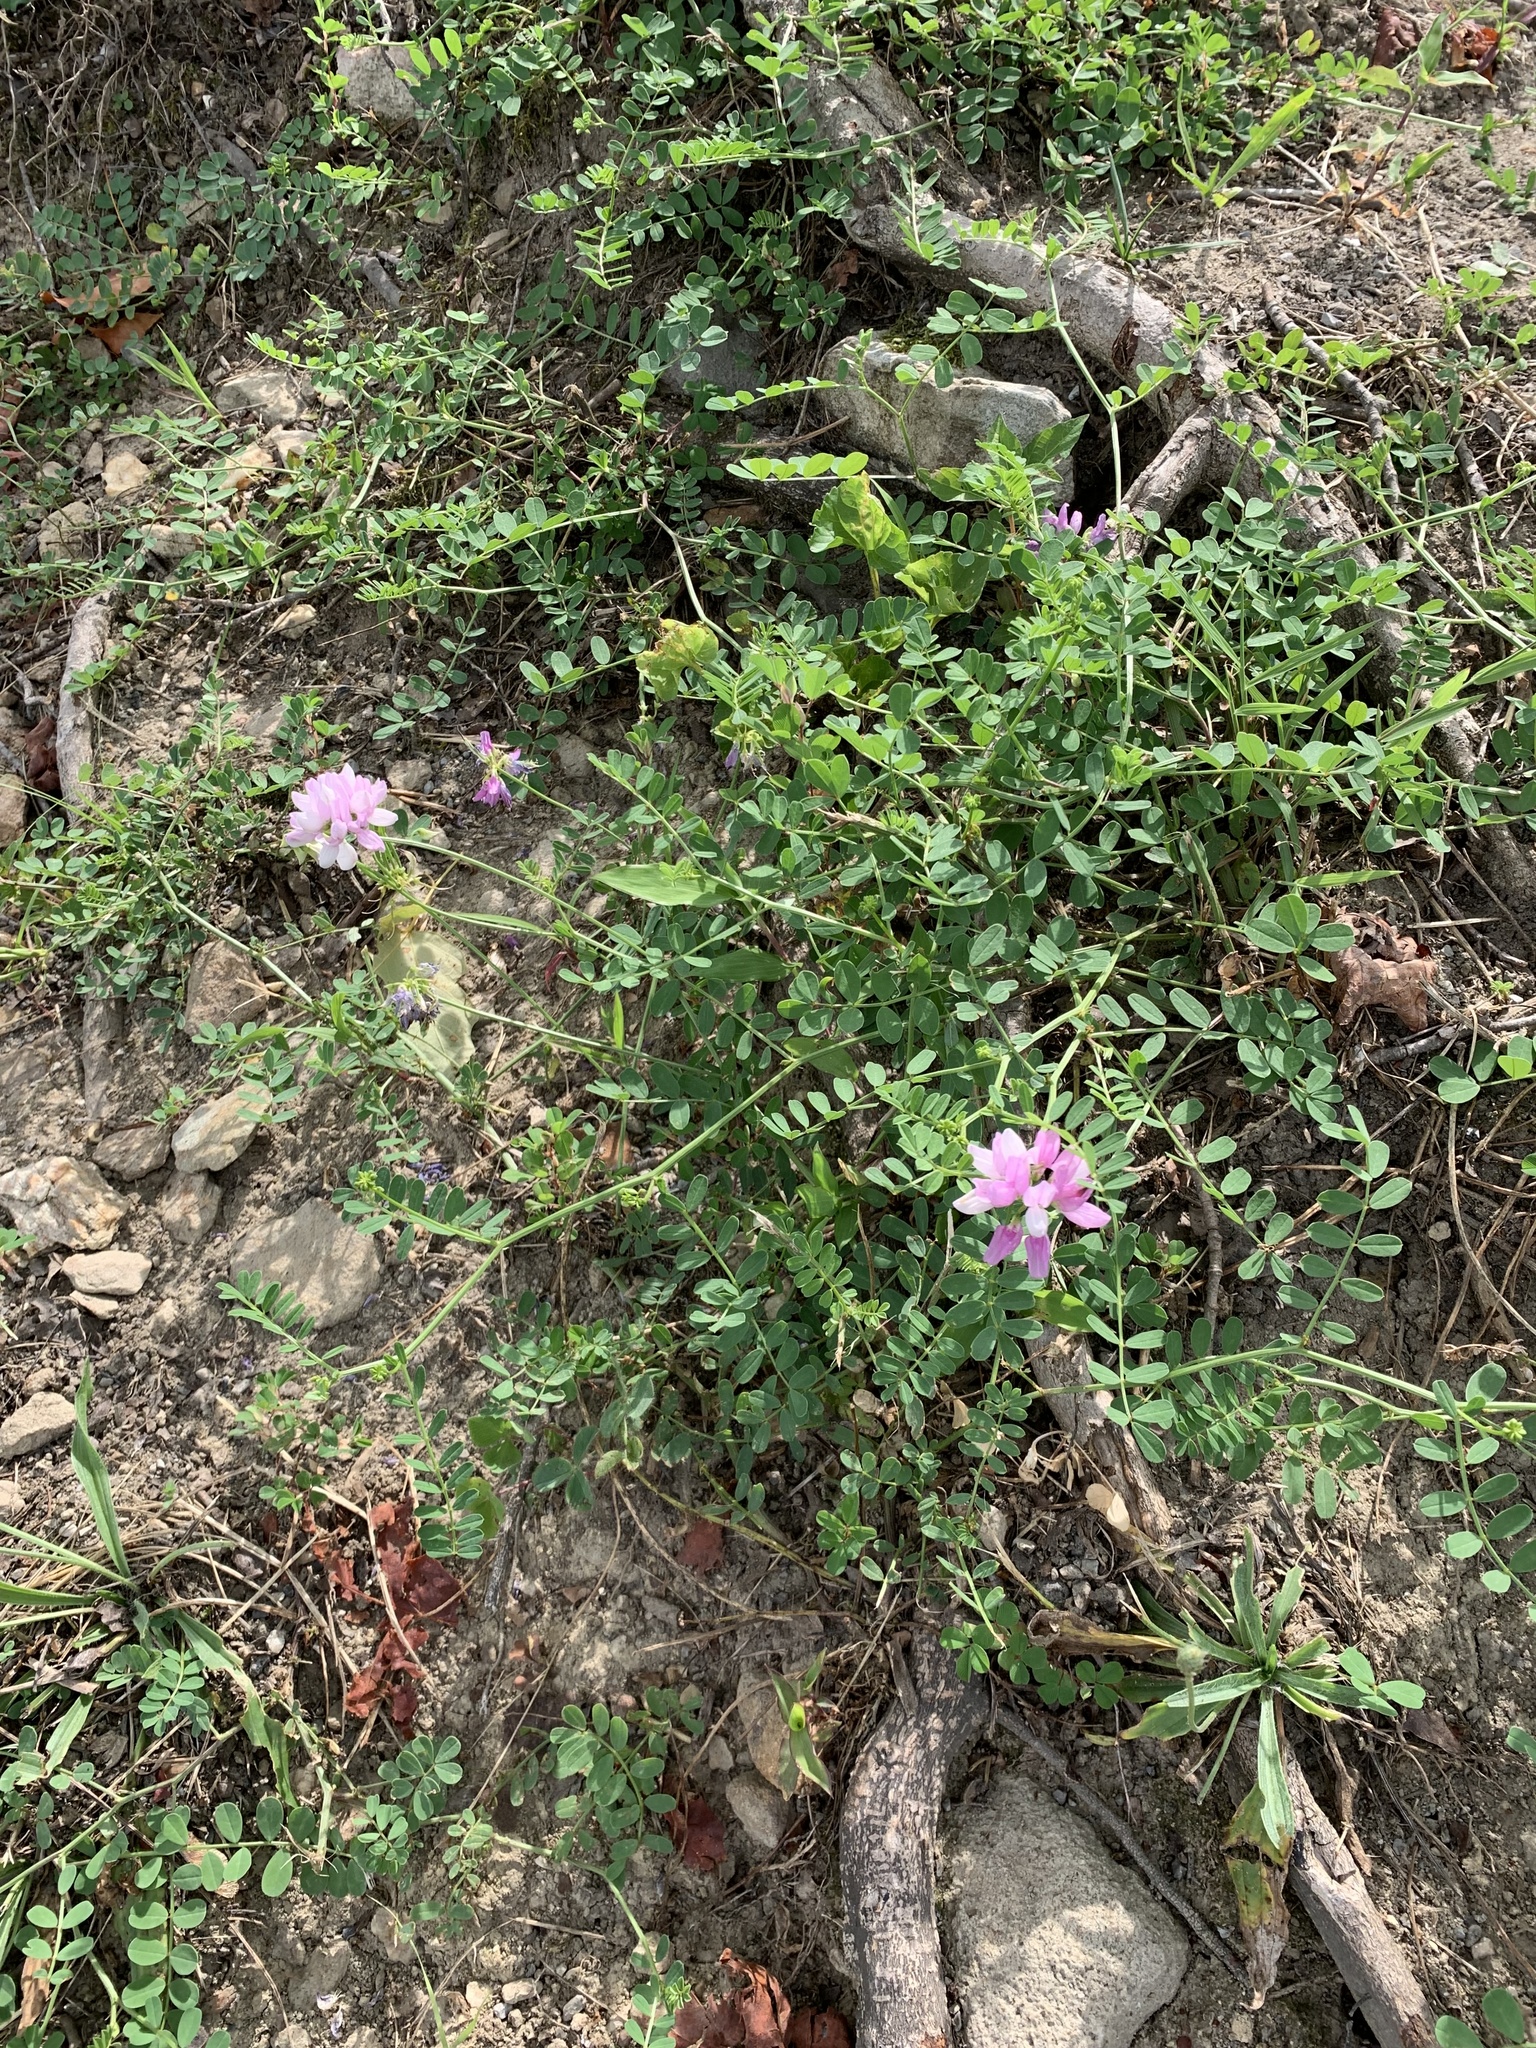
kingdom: Plantae
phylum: Tracheophyta
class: Magnoliopsida
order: Fabales
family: Fabaceae
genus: Coronilla
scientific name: Coronilla varia
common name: Crownvetch
